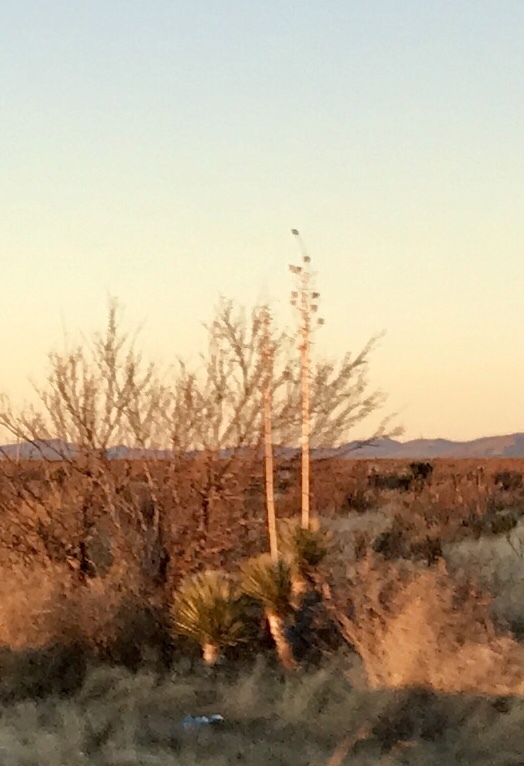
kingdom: Plantae
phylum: Tracheophyta
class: Liliopsida
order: Asparagales
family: Asparagaceae
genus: Yucca
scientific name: Yucca elata
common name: Palmella
